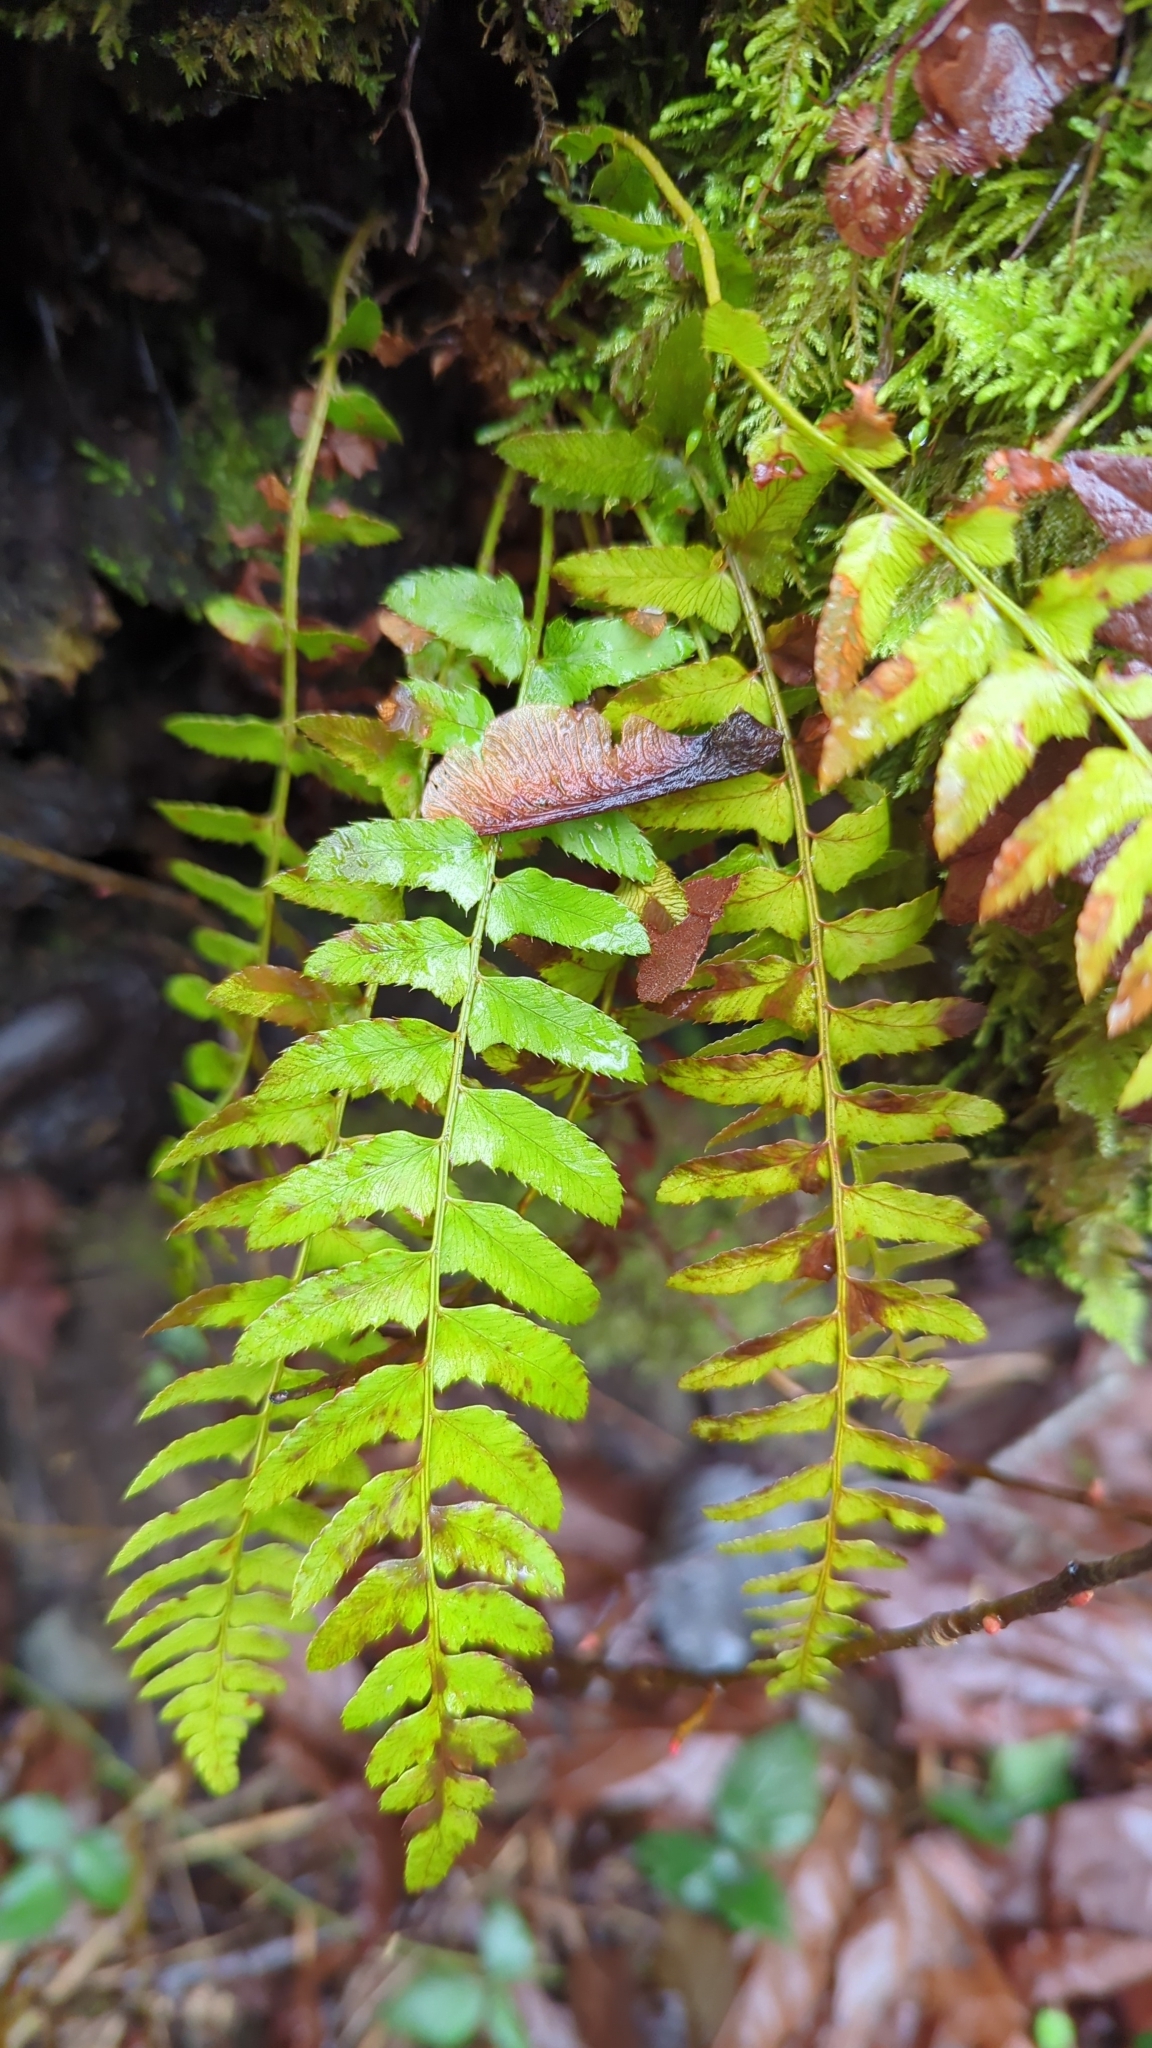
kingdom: Plantae
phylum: Tracheophyta
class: Polypodiopsida
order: Polypodiales
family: Dryopteridaceae
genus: Polystichum
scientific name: Polystichum munitum
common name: Western sword-fern
